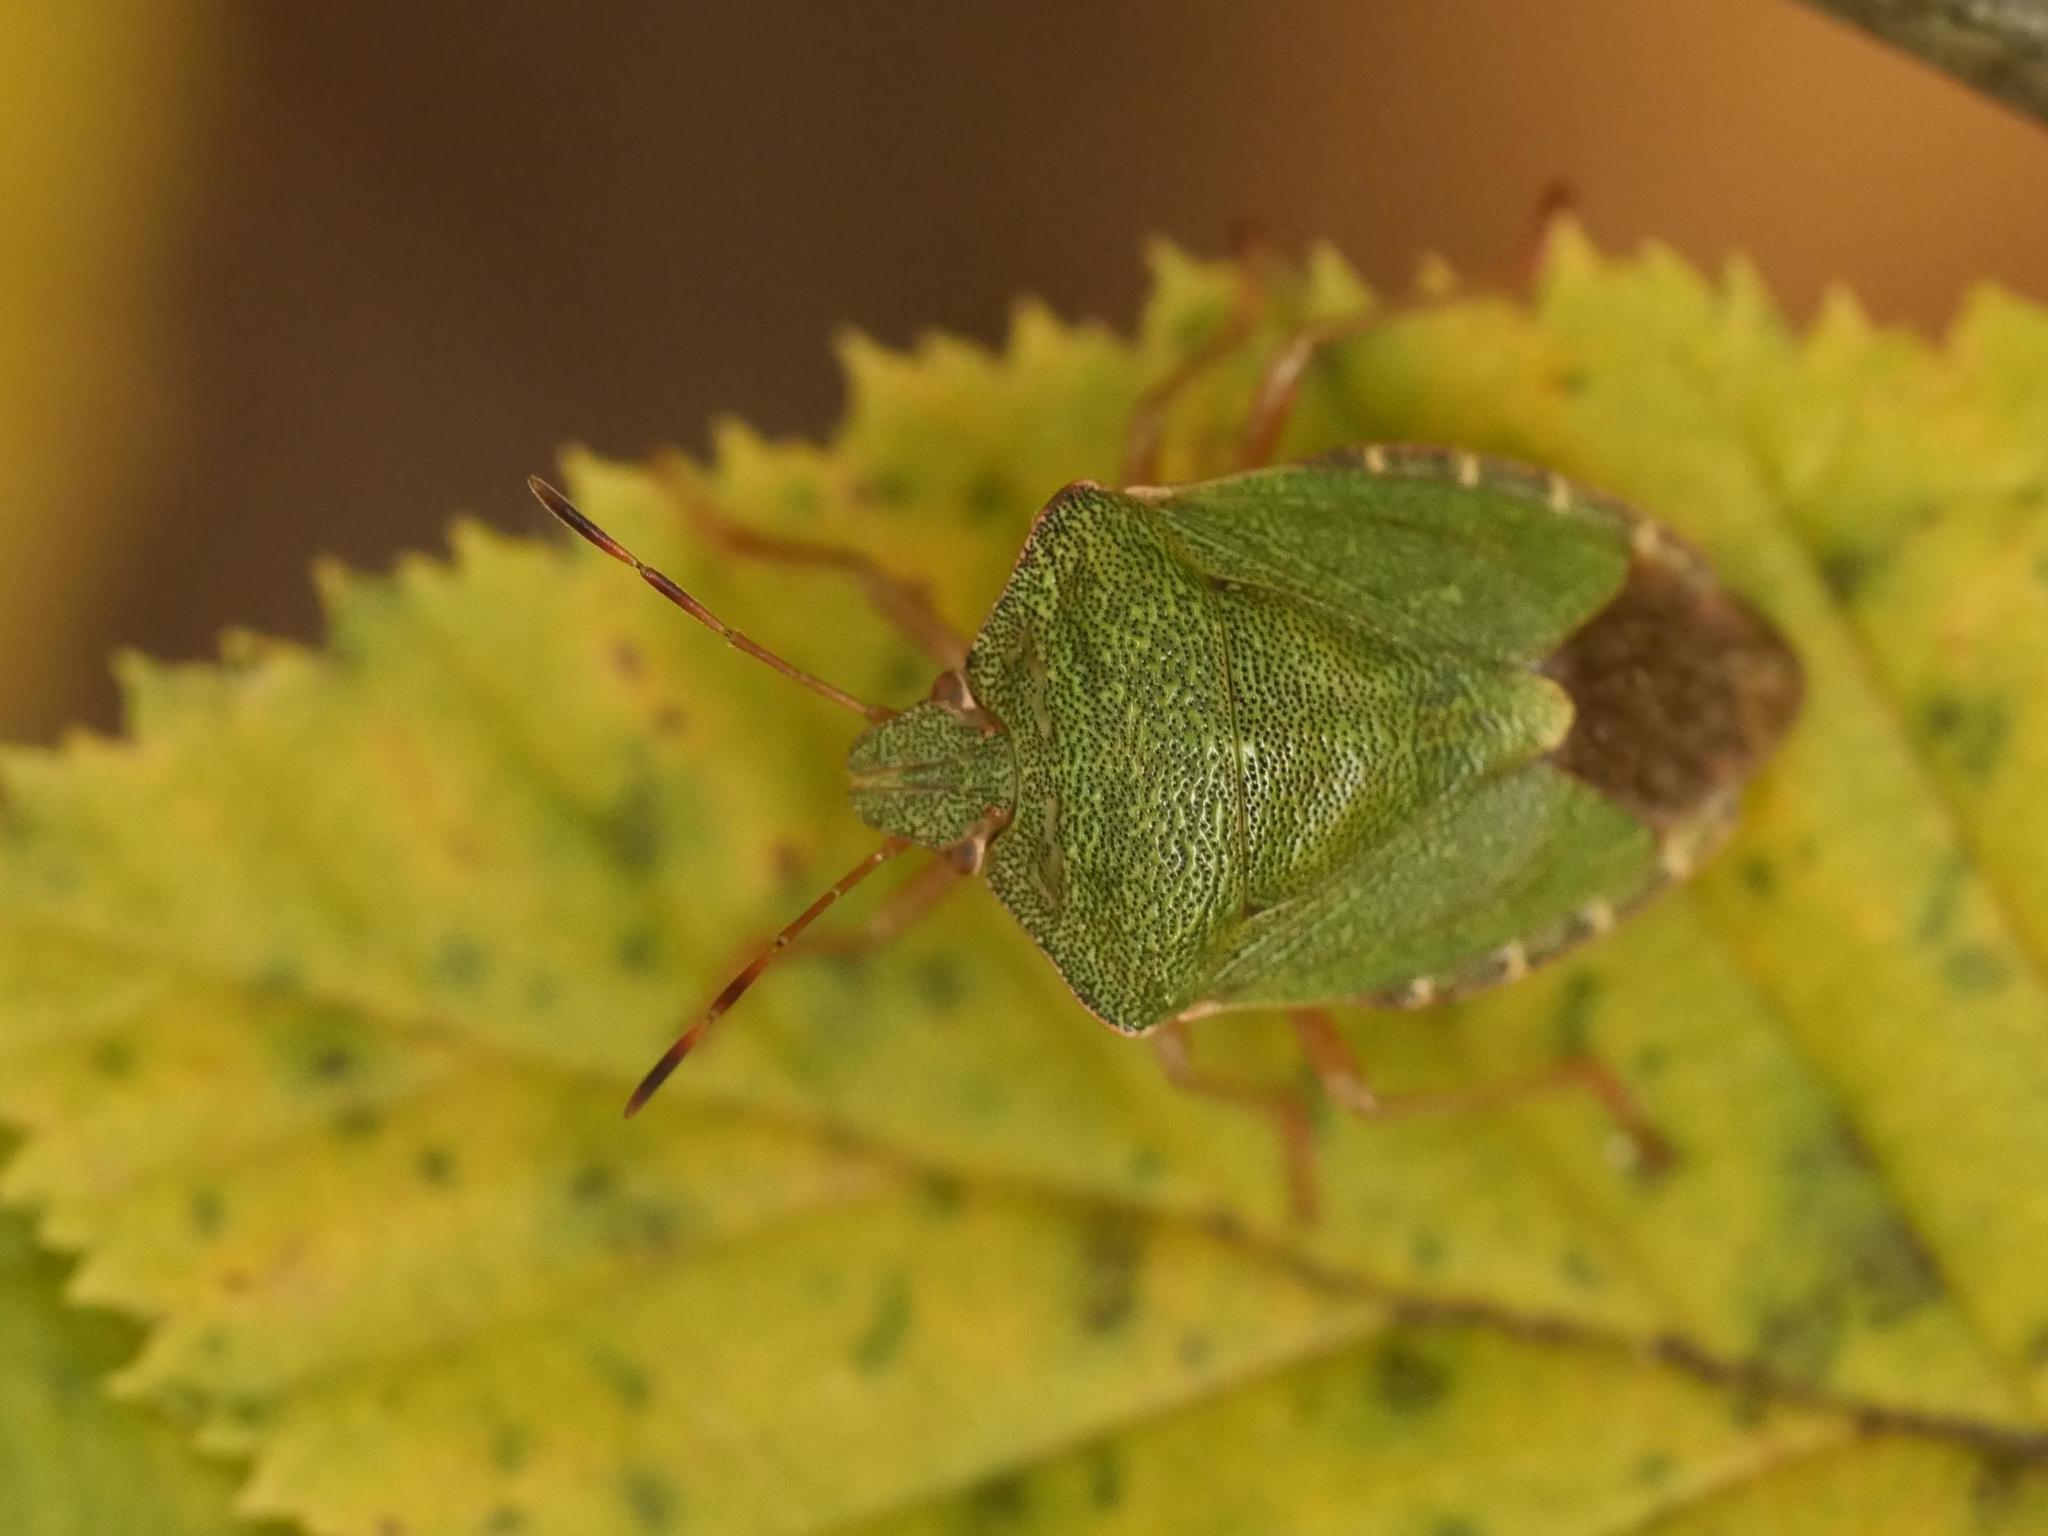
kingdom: Animalia
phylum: Arthropoda
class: Insecta
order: Hemiptera
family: Pentatomidae
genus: Palomena
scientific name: Palomena prasina
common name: Green shieldbug
